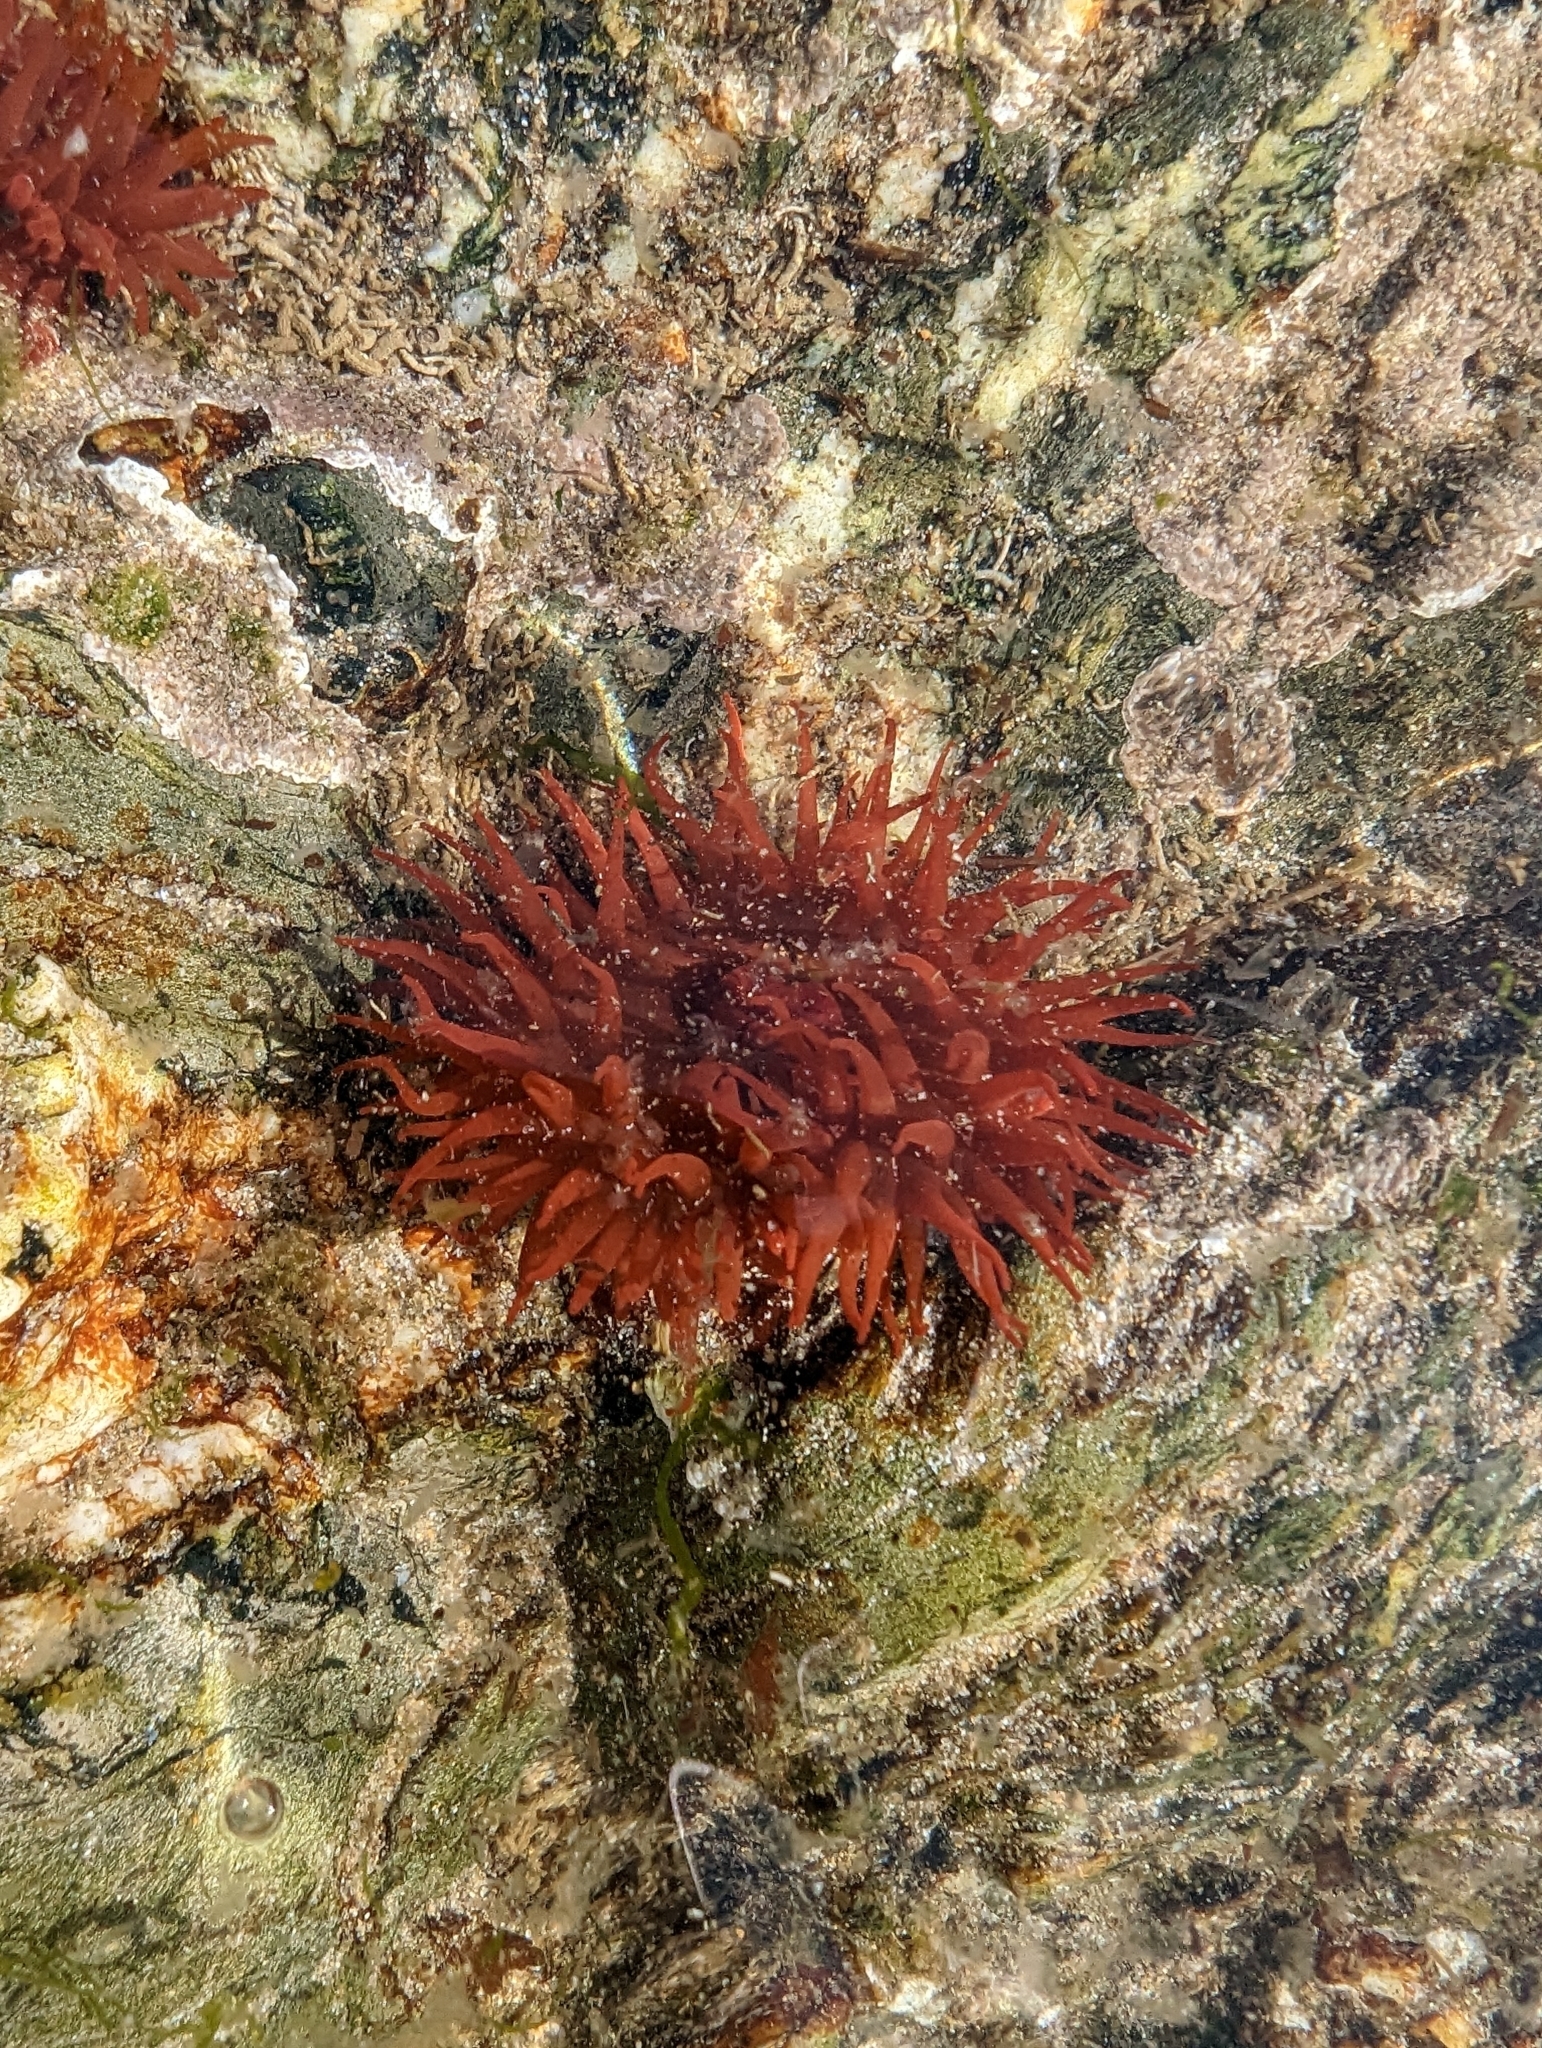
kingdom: Animalia
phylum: Cnidaria
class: Anthozoa
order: Actiniaria
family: Actiniidae
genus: Actinia
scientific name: Actinia equina
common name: Beadlet anemone
